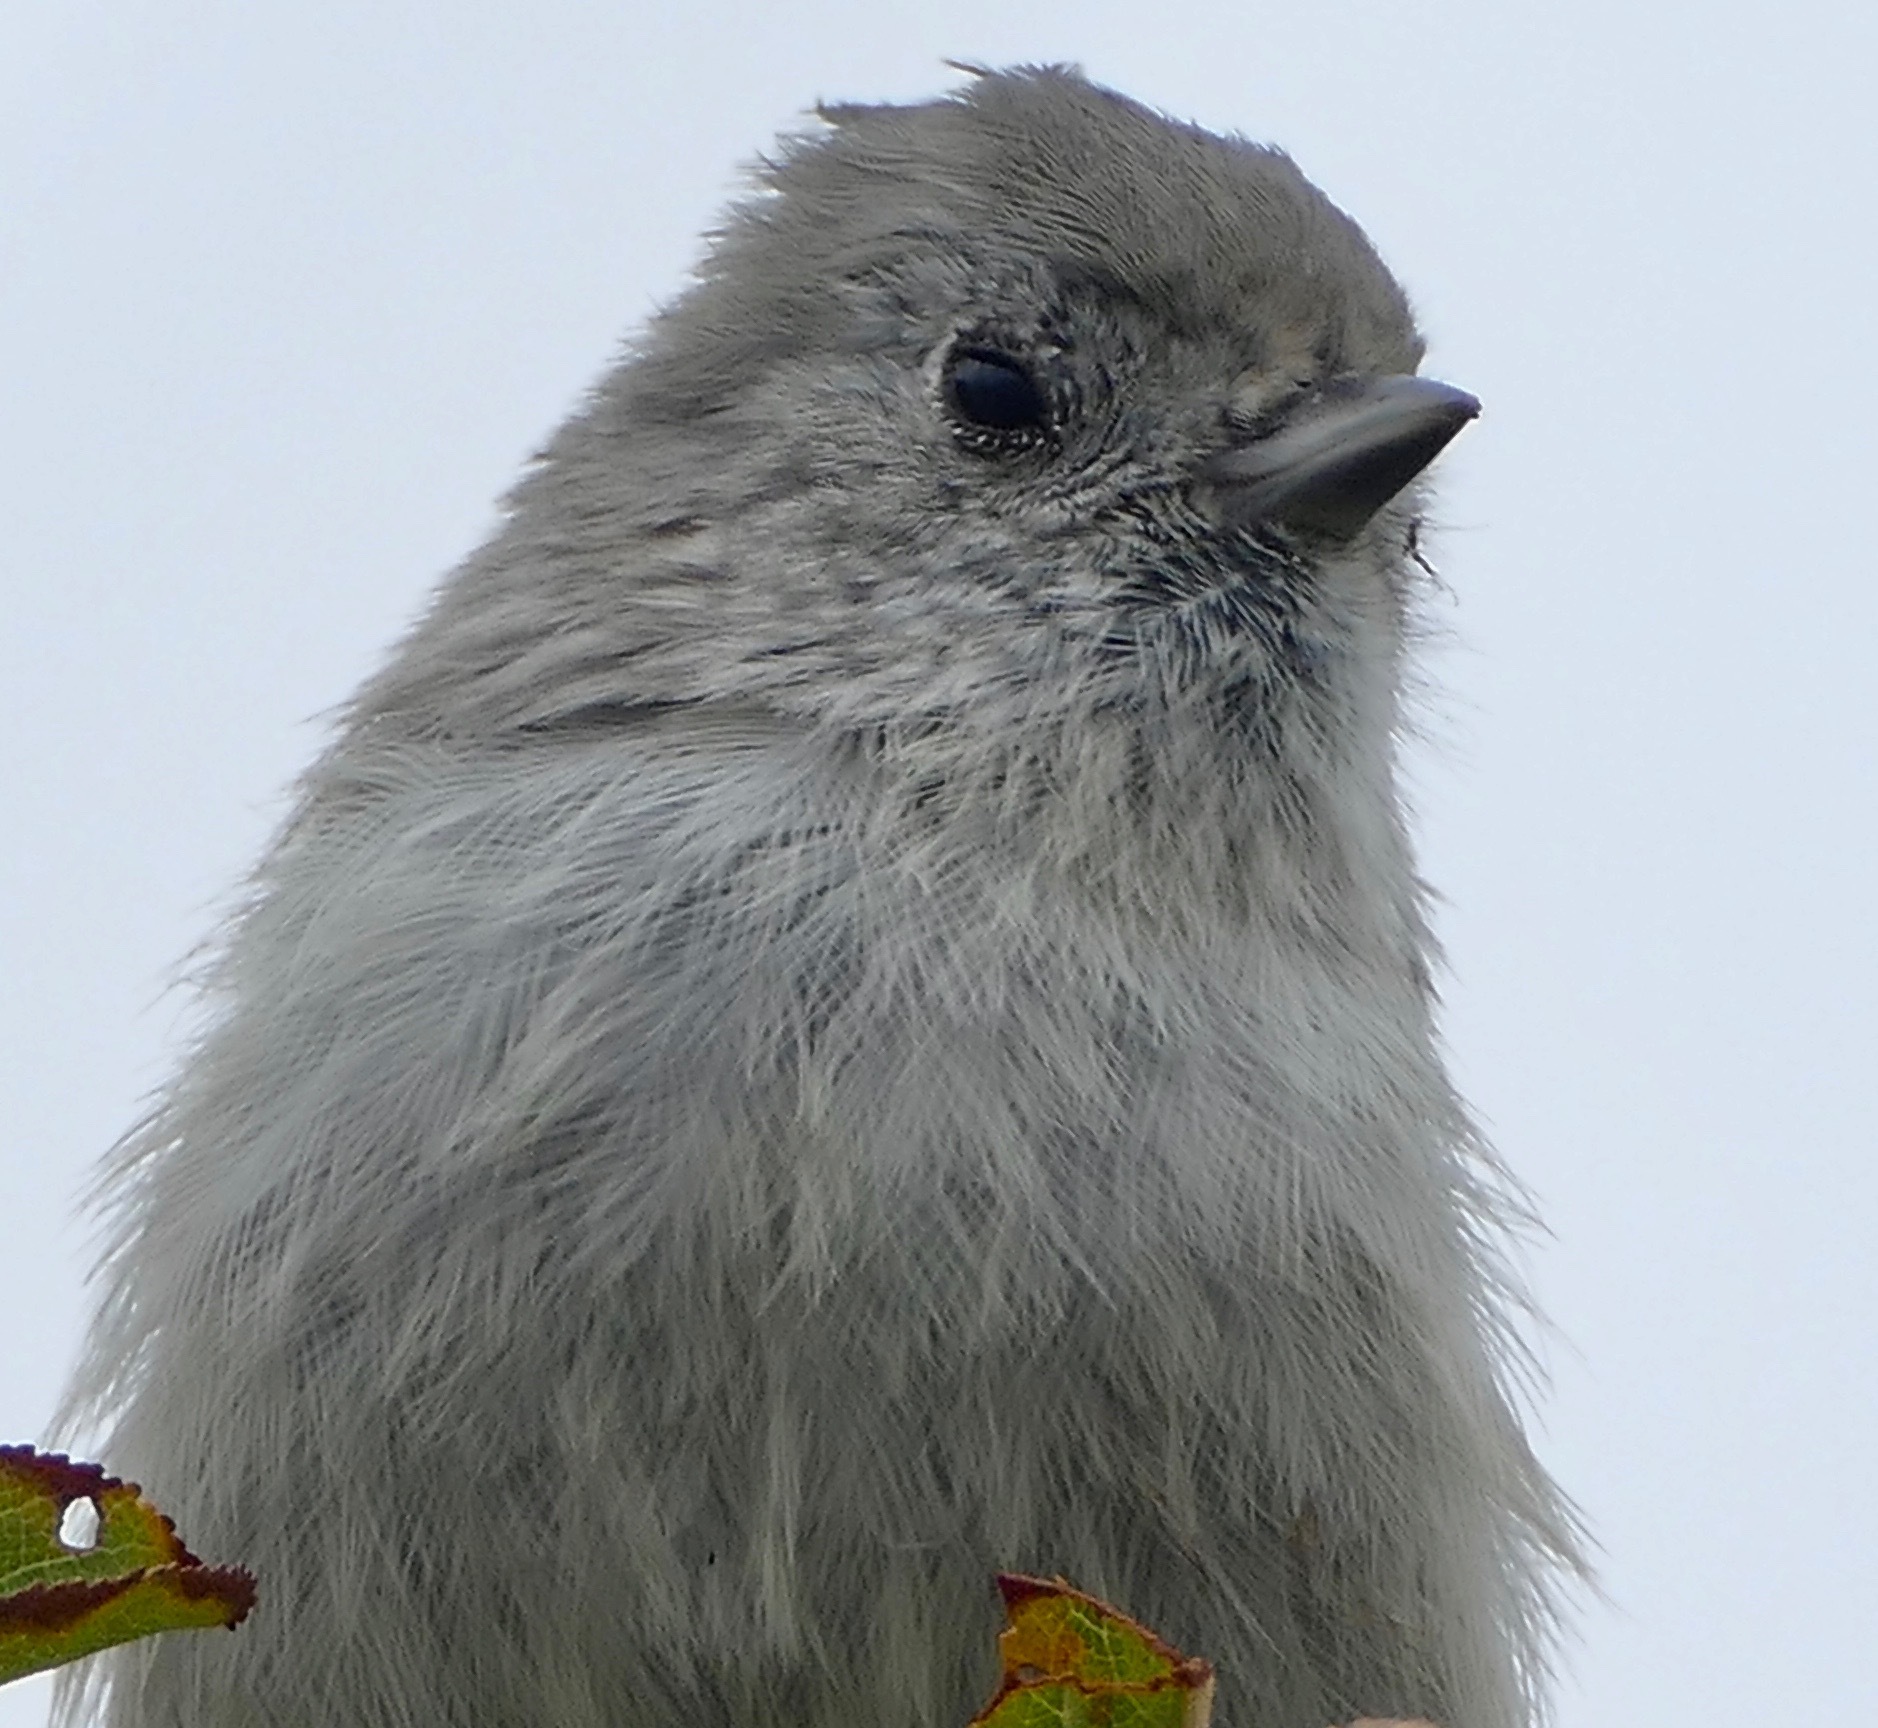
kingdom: Animalia
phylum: Chordata
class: Aves
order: Passeriformes
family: Paridae
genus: Baeolophus
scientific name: Baeolophus inornatus
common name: Oak titmouse
